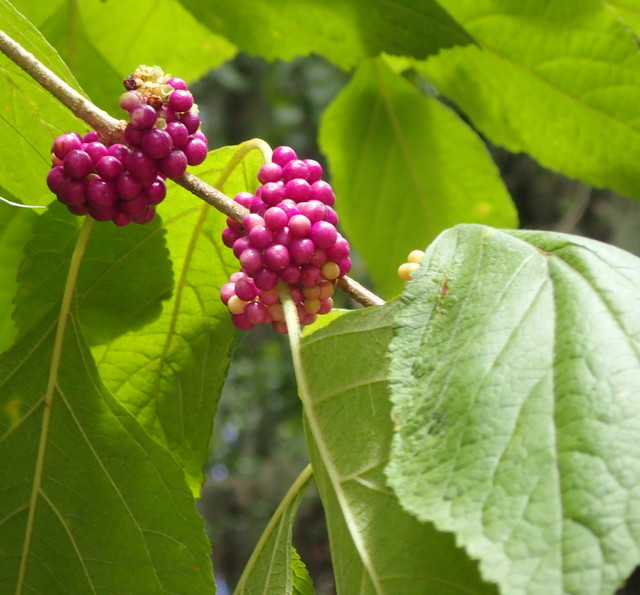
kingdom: Plantae
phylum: Tracheophyta
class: Magnoliopsida
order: Lamiales
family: Lamiaceae
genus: Callicarpa
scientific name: Callicarpa americana
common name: American beautyberry
